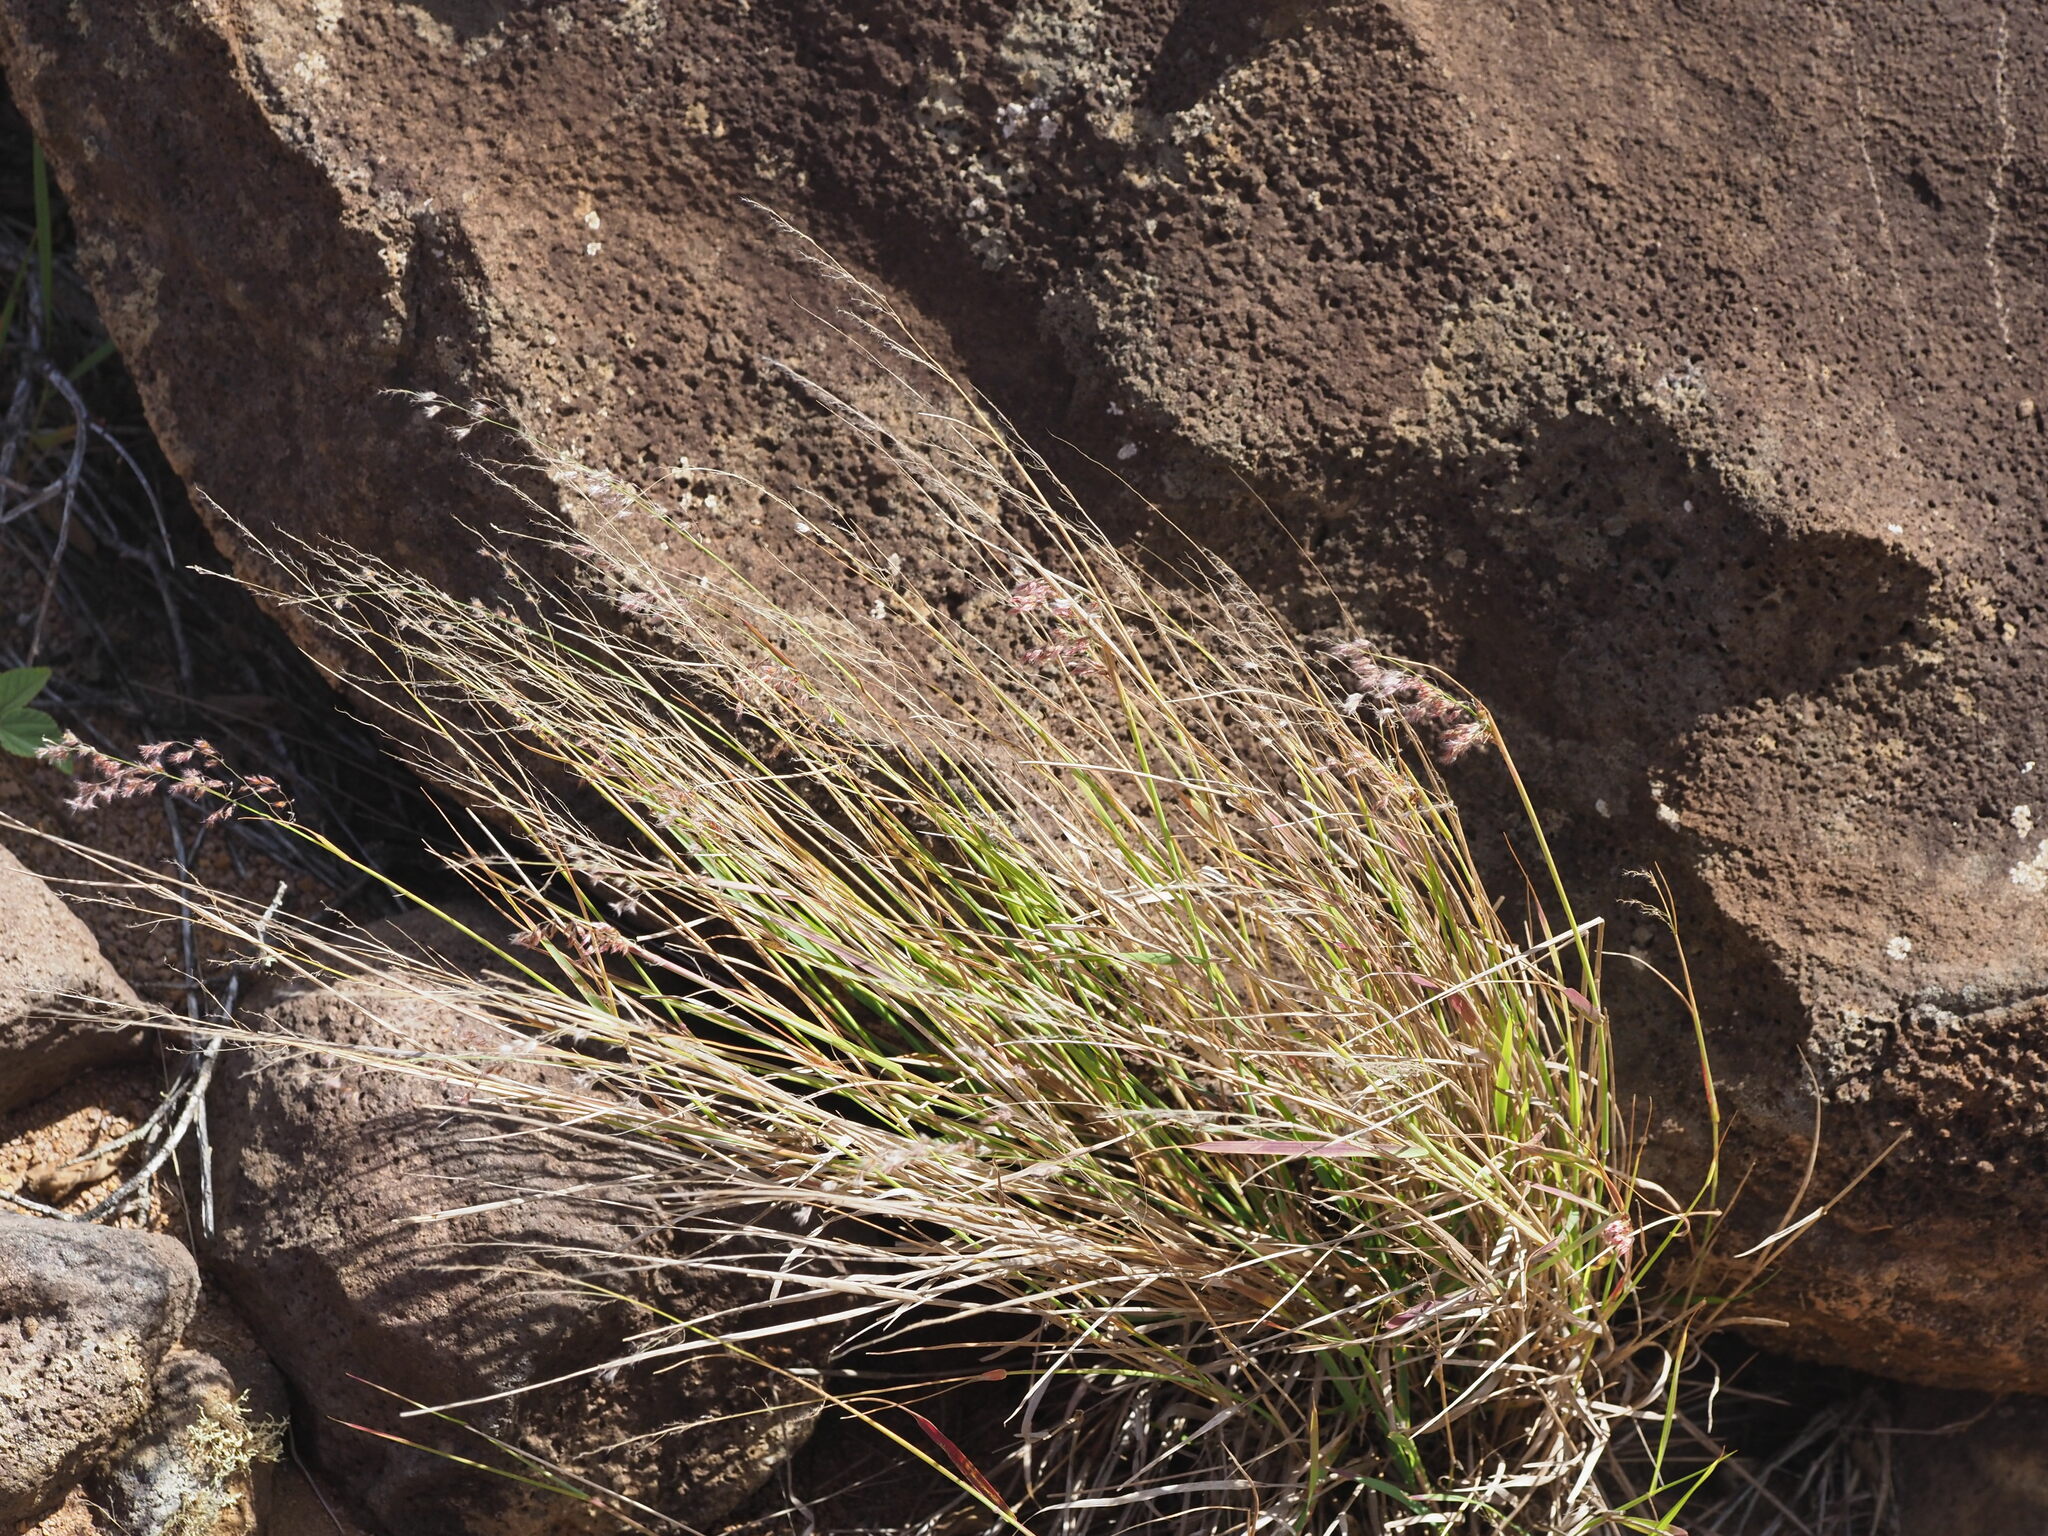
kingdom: Plantae
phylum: Tracheophyta
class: Liliopsida
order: Poales
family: Poaceae
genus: Melinis
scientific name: Melinis repens
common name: Rose natal grass
